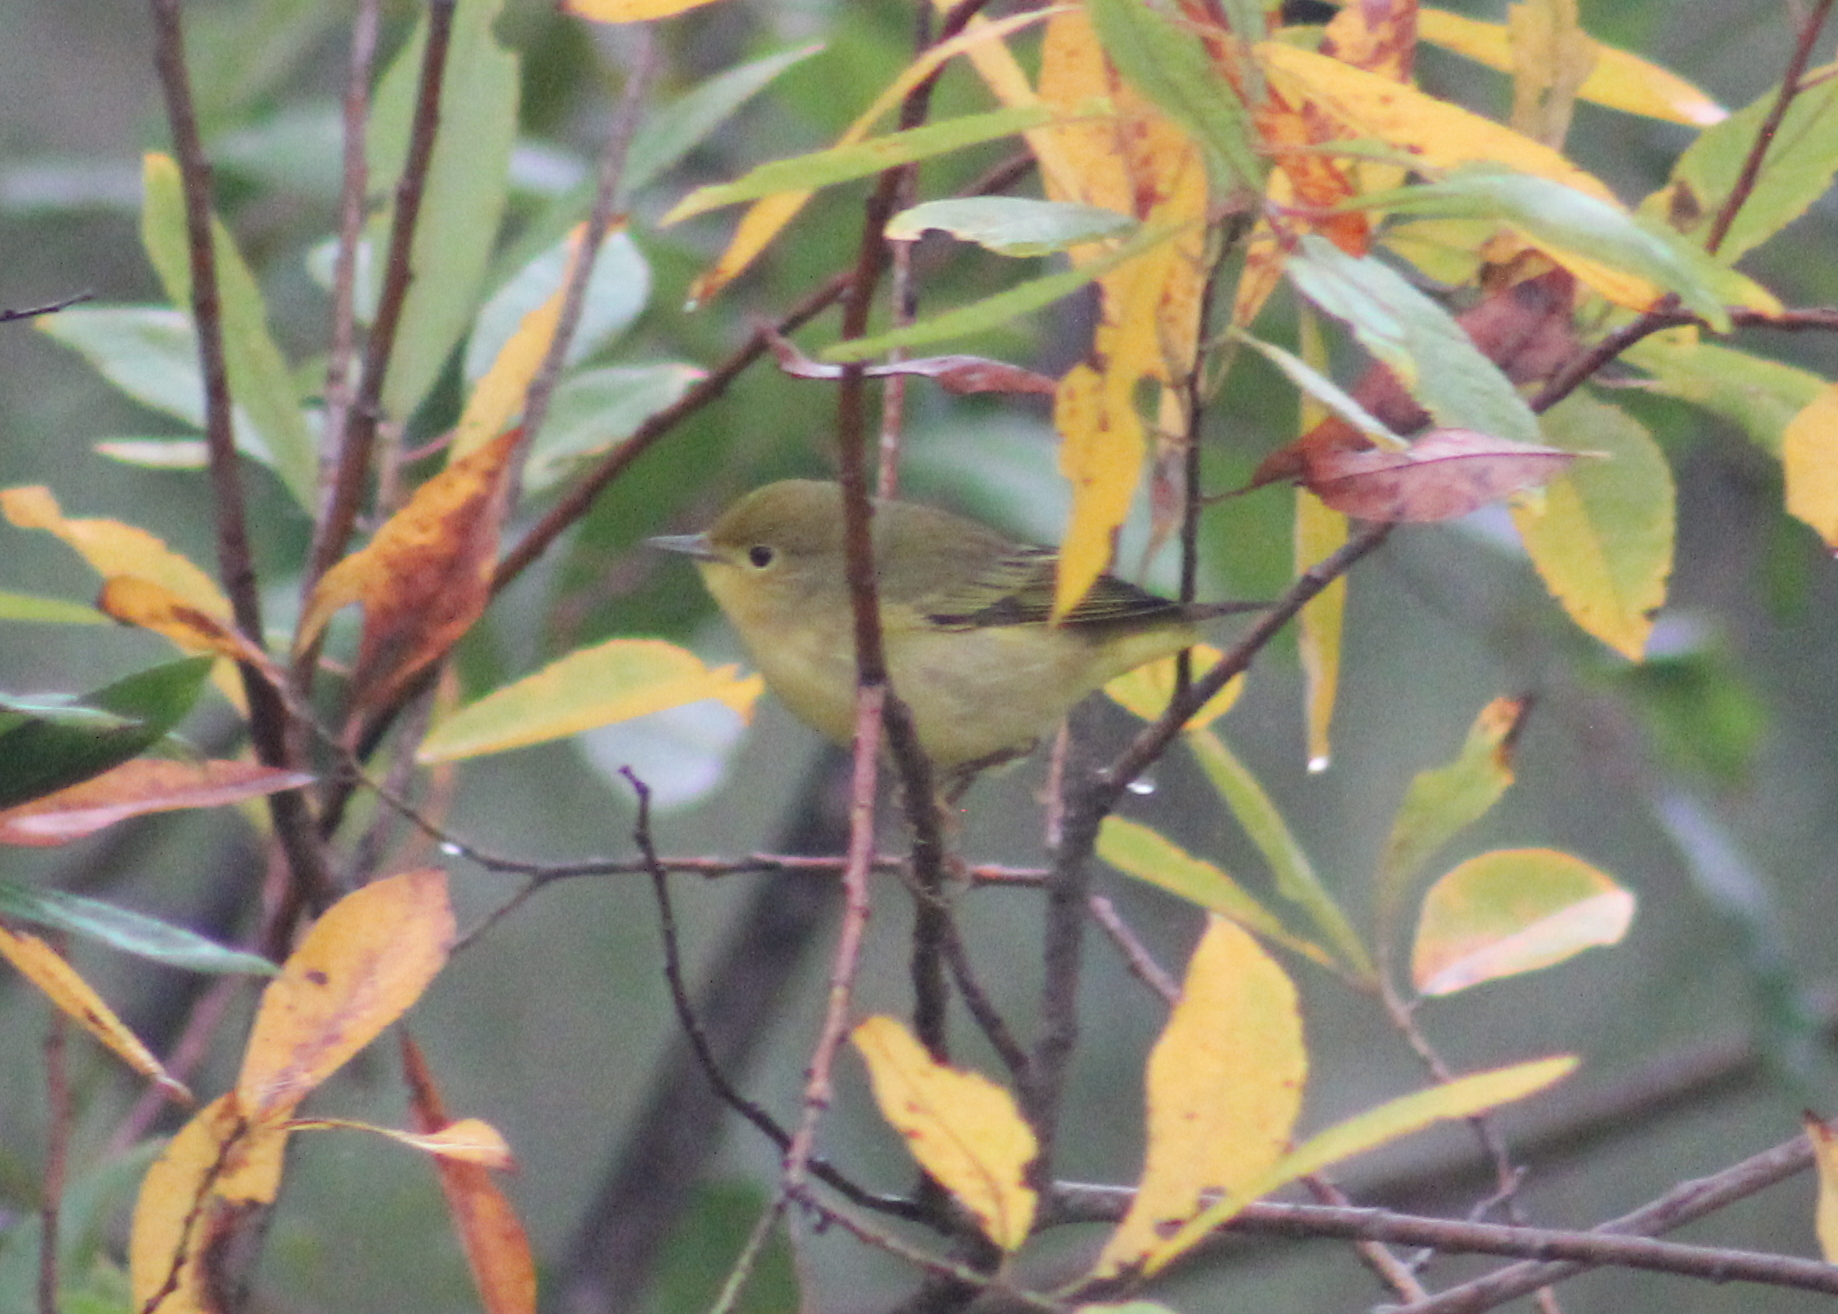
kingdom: Animalia
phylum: Chordata
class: Aves
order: Passeriformes
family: Parulidae
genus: Setophaga
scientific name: Setophaga petechia
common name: Yellow warbler
